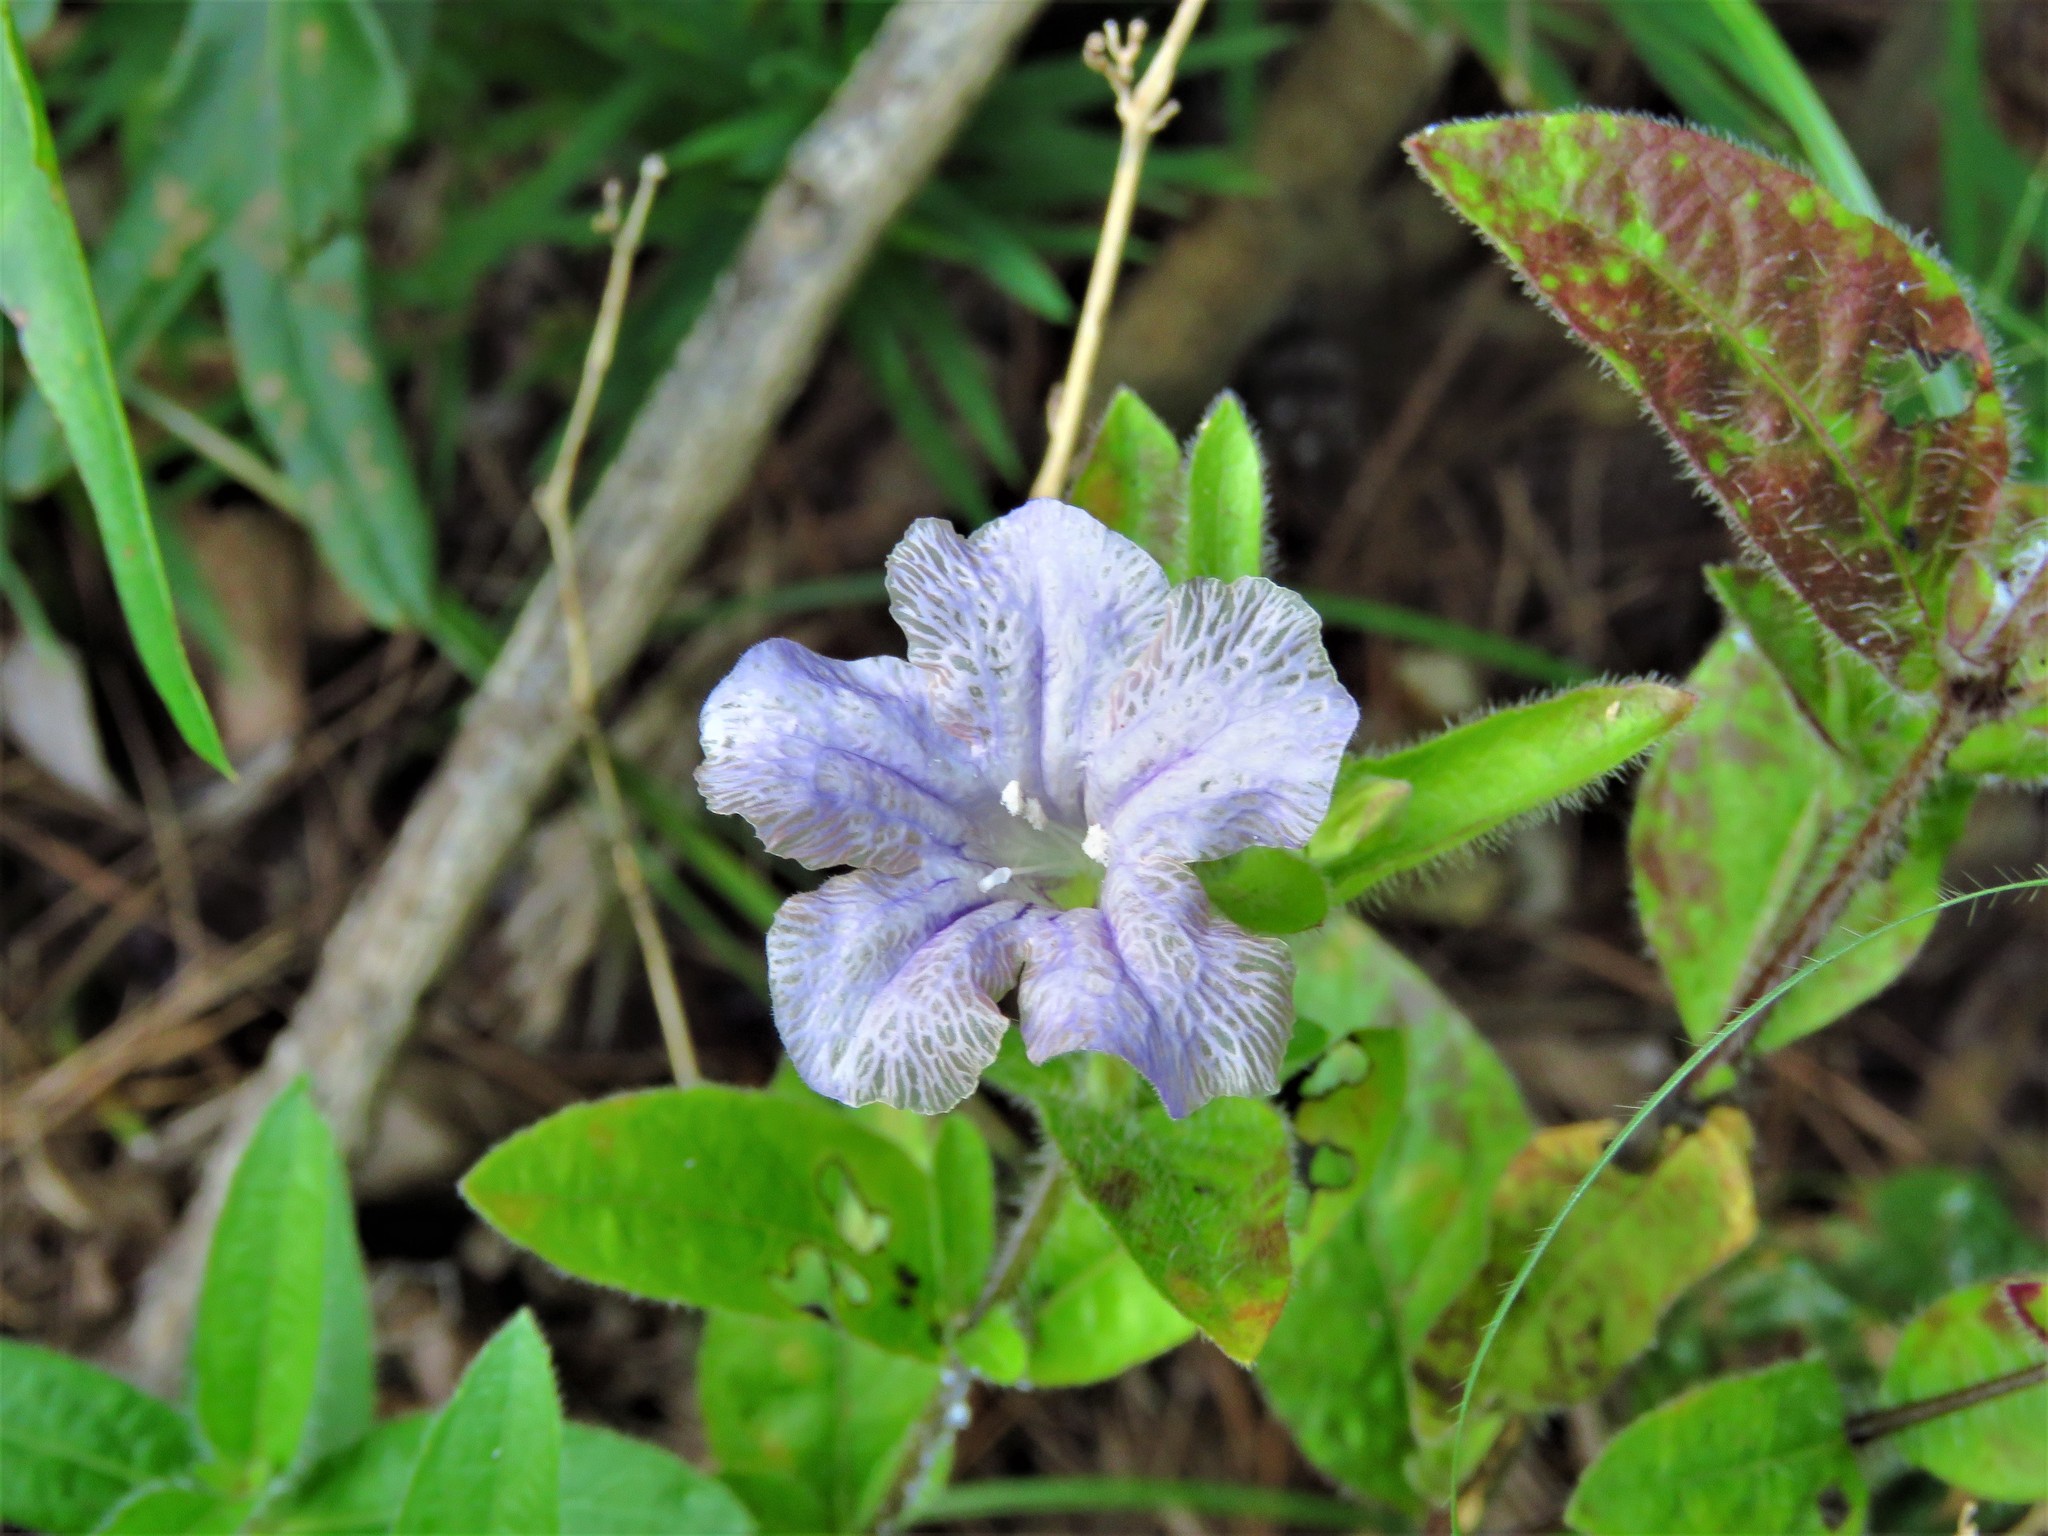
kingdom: Plantae
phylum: Tracheophyta
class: Magnoliopsida
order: Lamiales
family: Acanthaceae
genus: Ruellia
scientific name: Ruellia humilis
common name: Fringe-leaf ruellia
